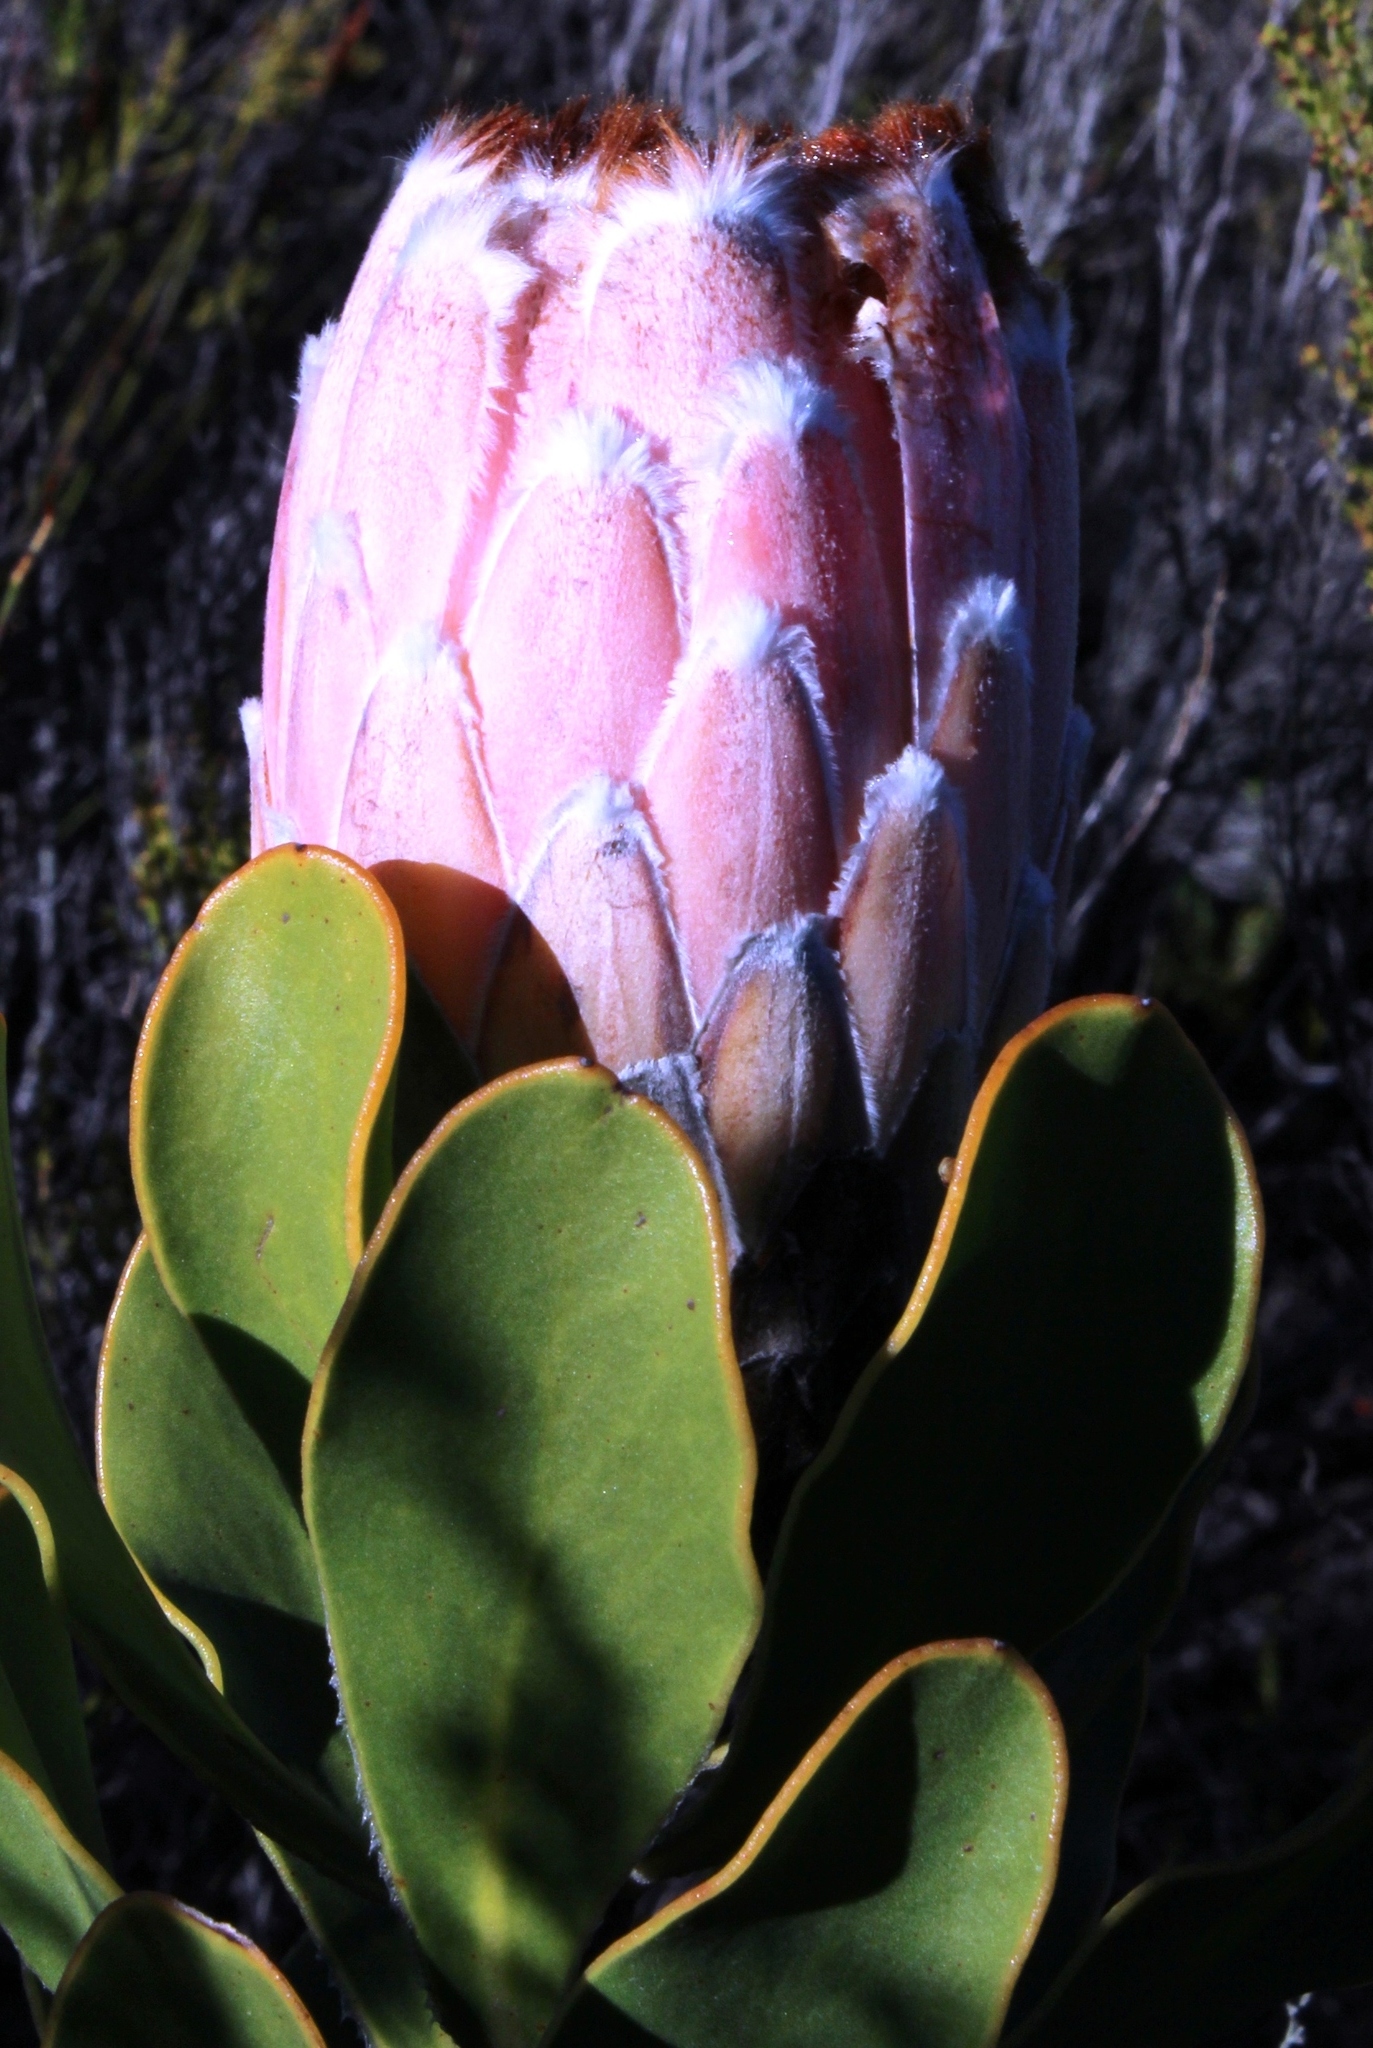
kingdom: Plantae
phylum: Tracheophyta
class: Magnoliopsida
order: Proteales
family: Proteaceae
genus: Protea
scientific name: Protea speciosa
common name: Brown-beard sugarbush
